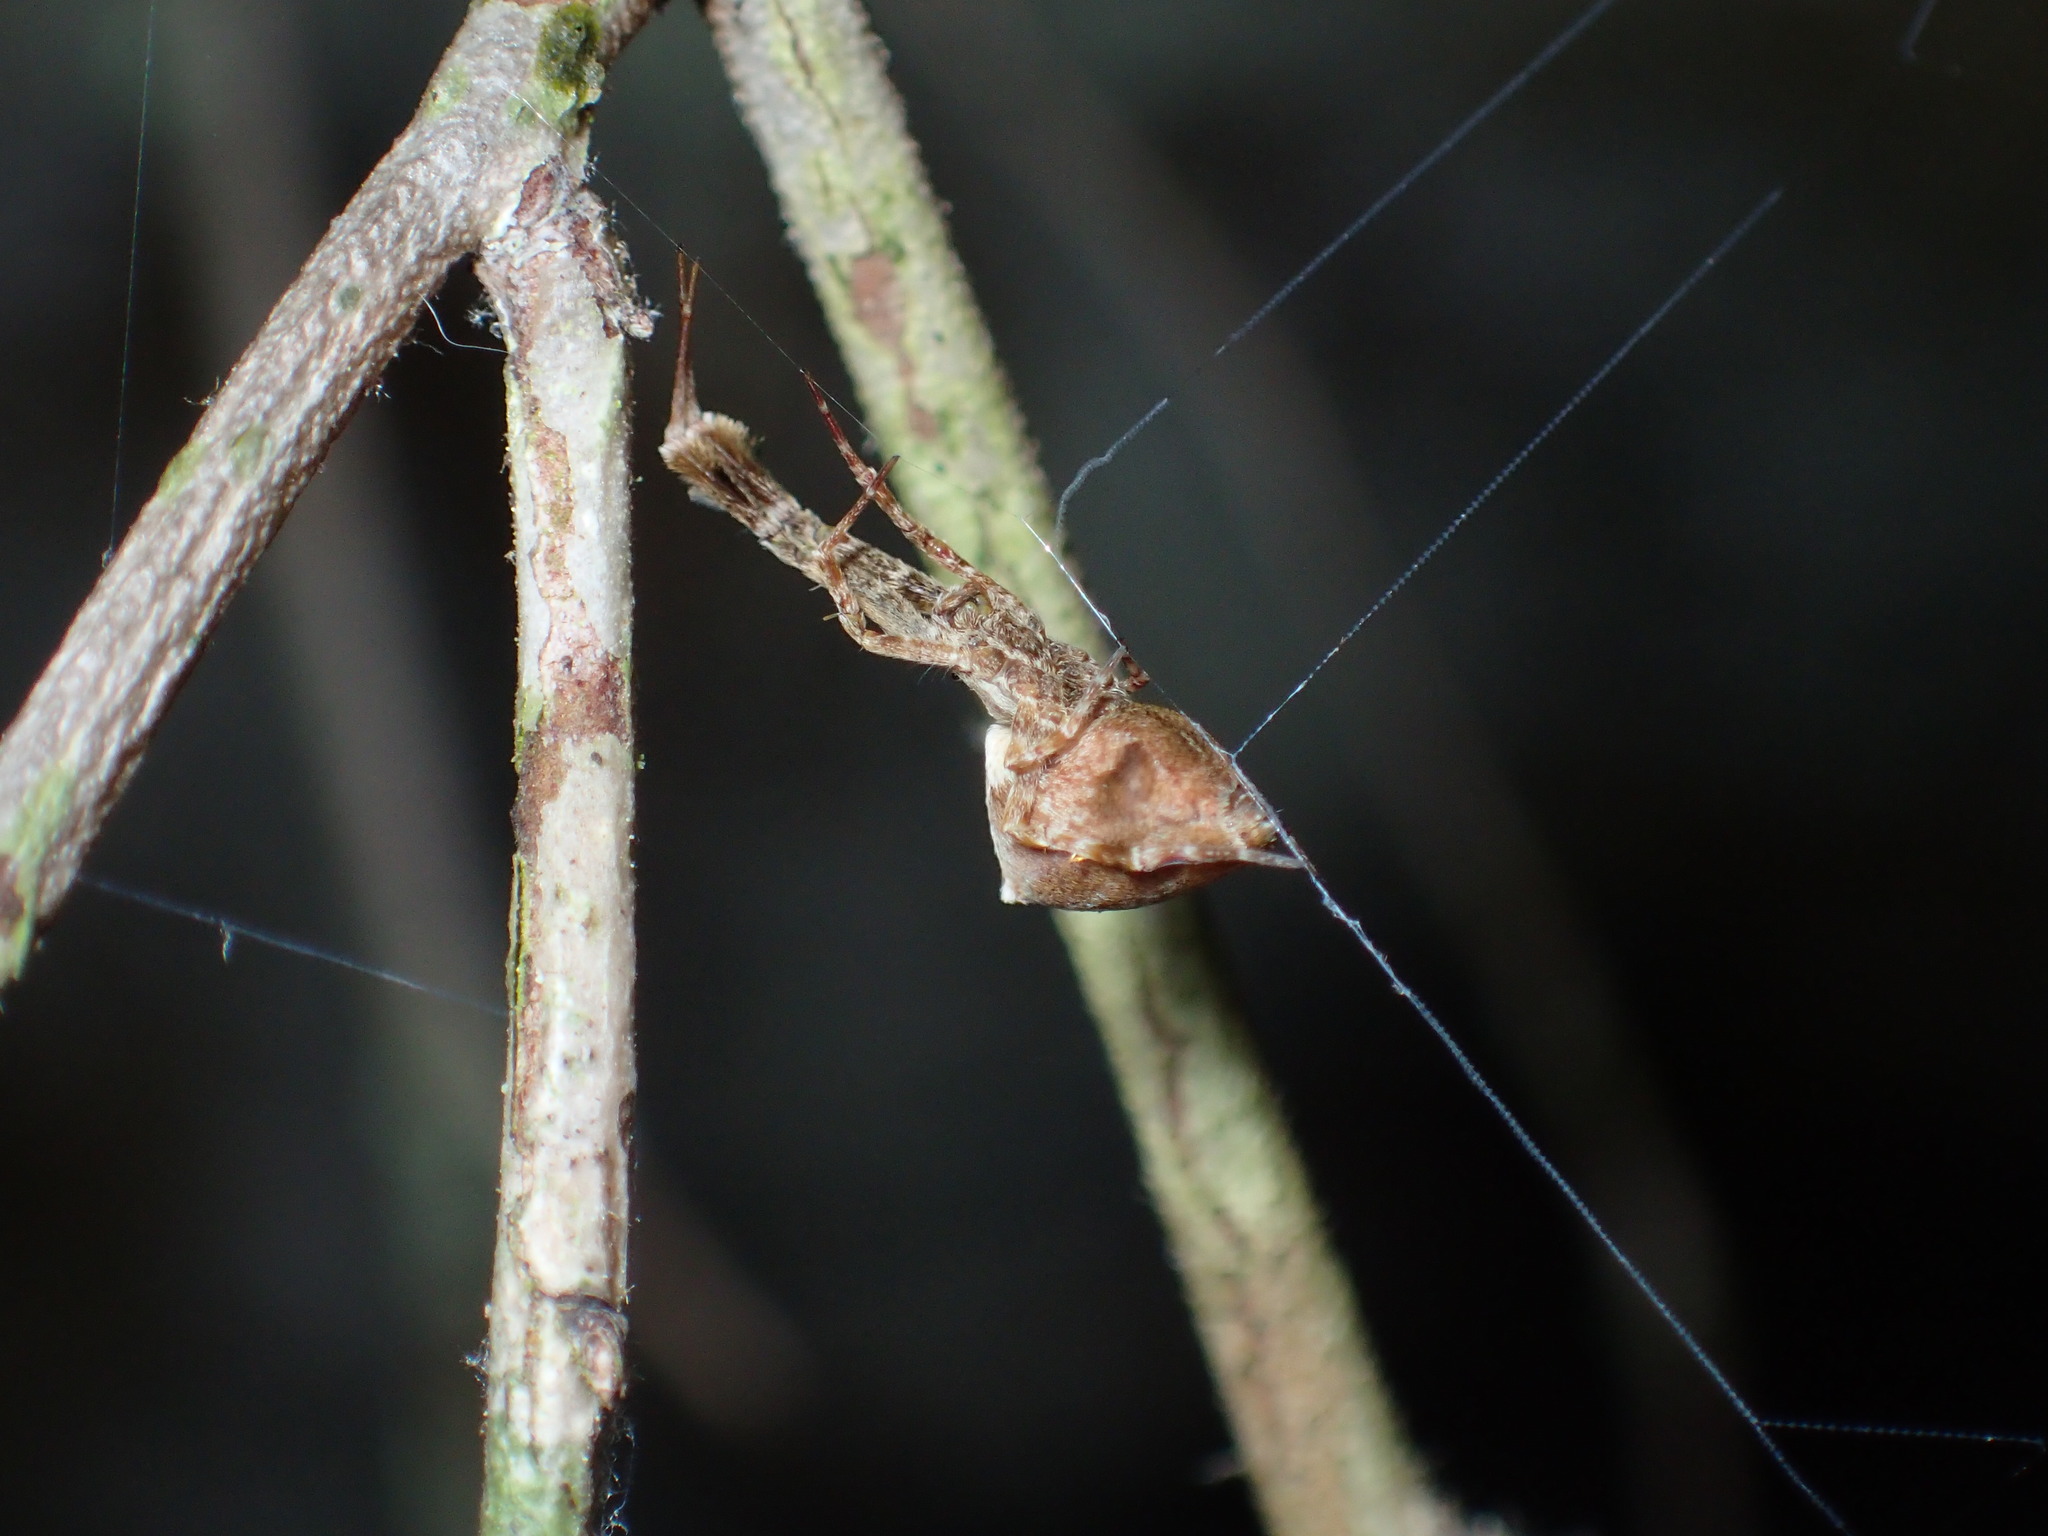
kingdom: Animalia
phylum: Arthropoda
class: Arachnida
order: Araneae
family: Uloboridae
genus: Uloborus
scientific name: Uloborus glomosus
